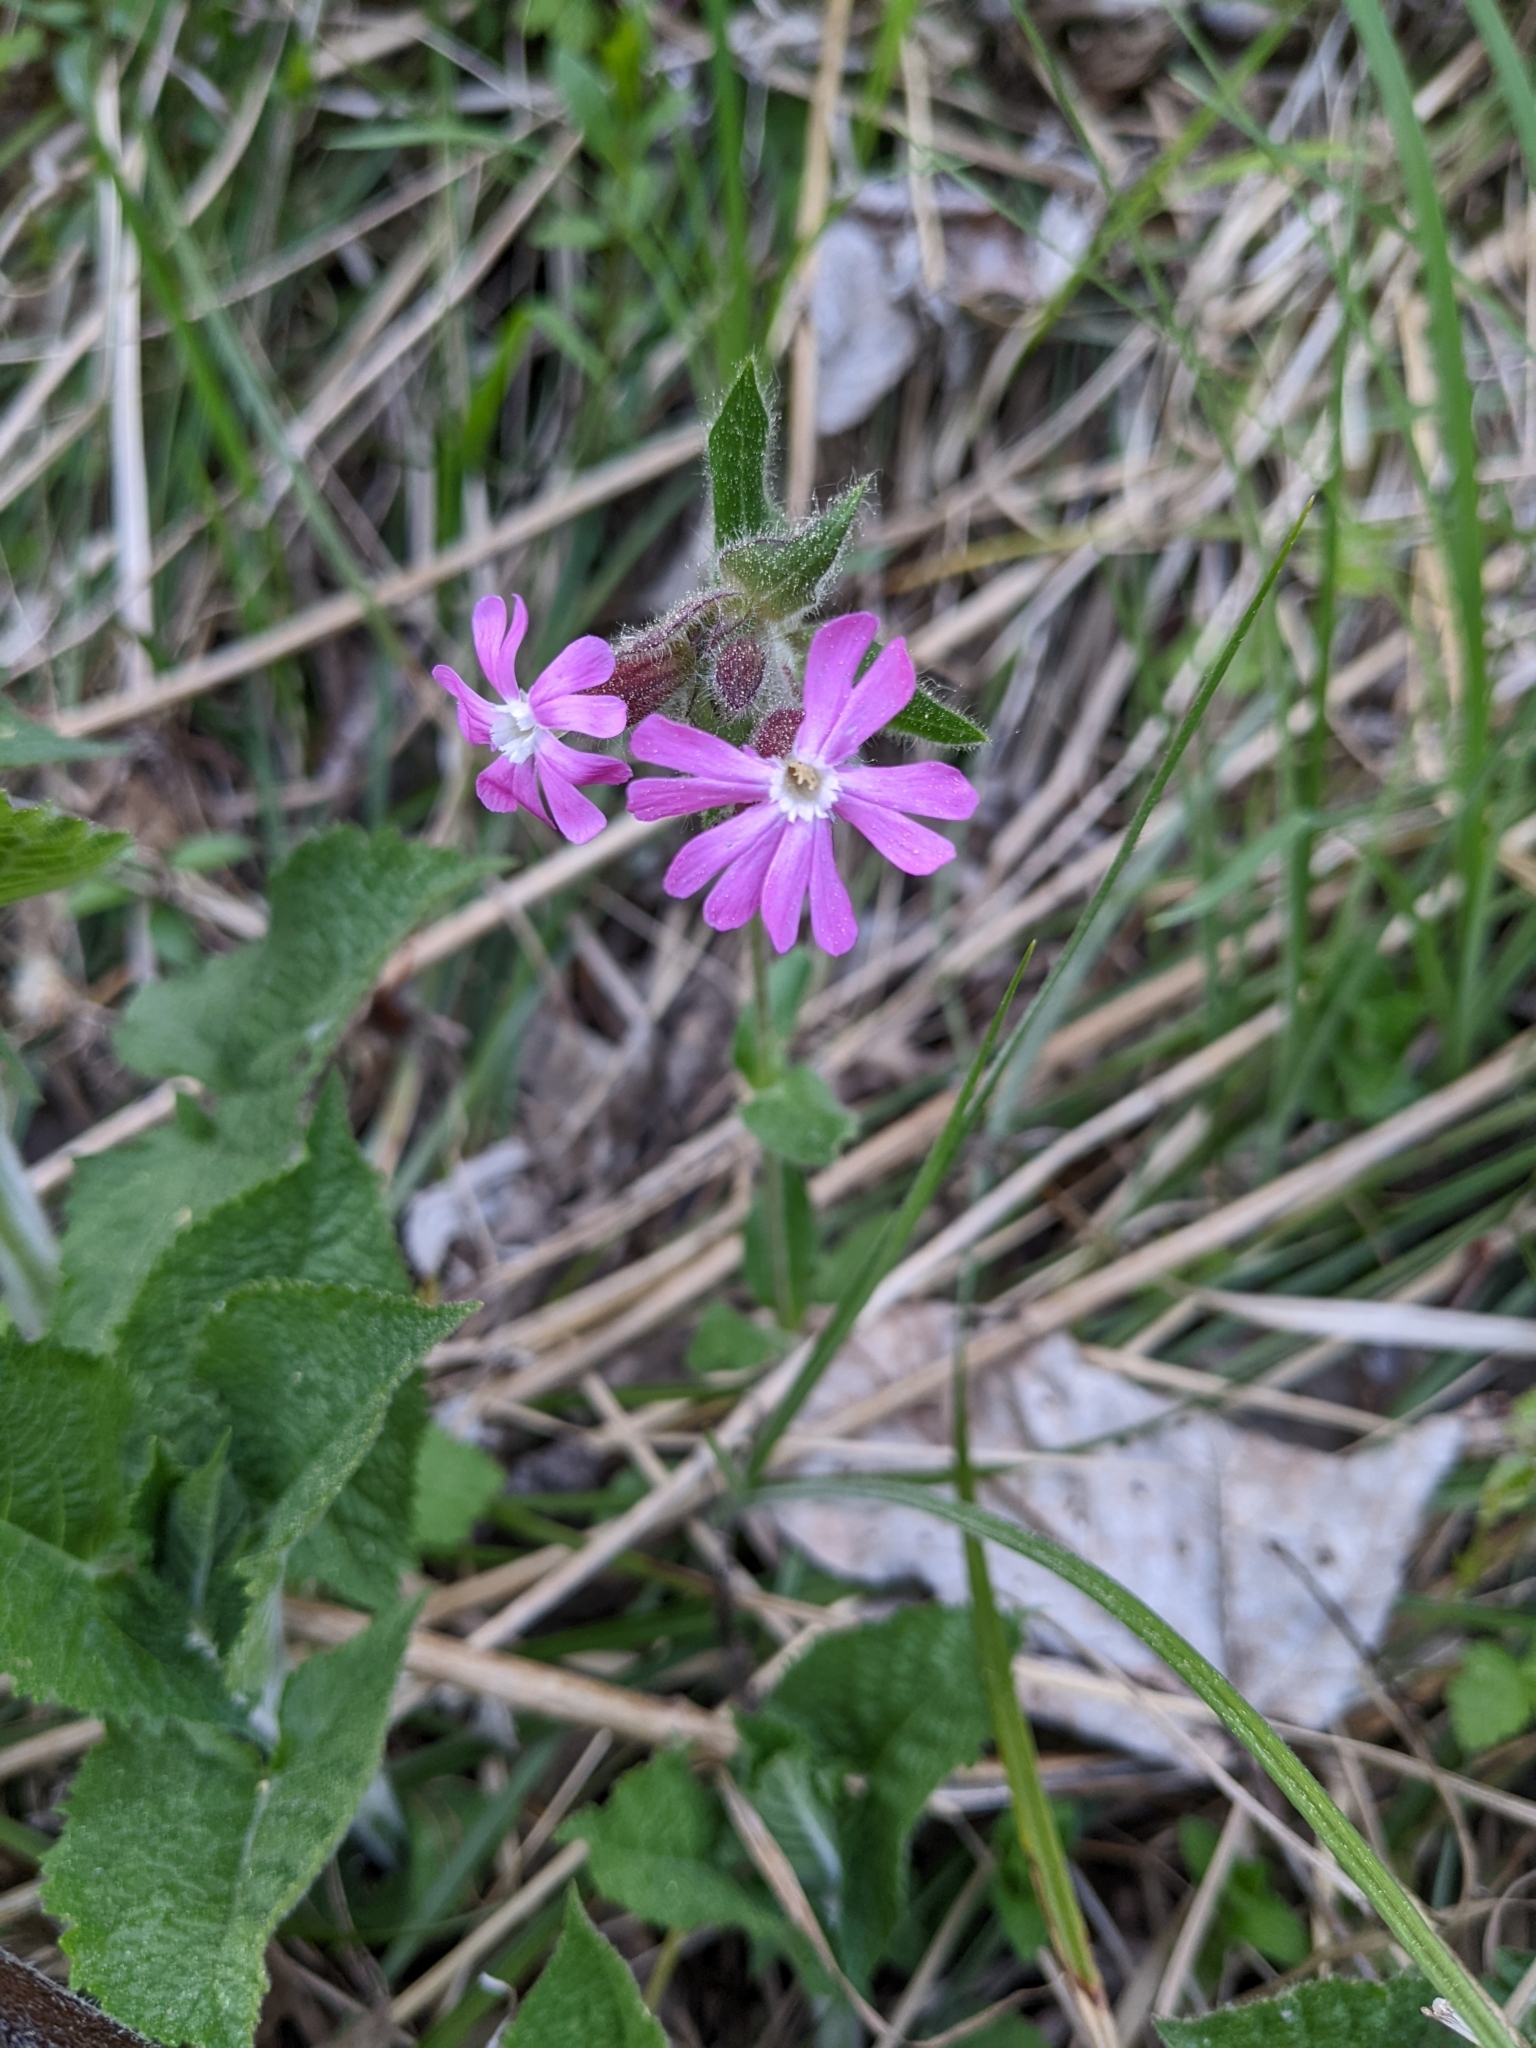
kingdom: Plantae
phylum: Tracheophyta
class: Magnoliopsida
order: Caryophyllales
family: Caryophyllaceae
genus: Silene
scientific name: Silene dioica
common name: Red campion
